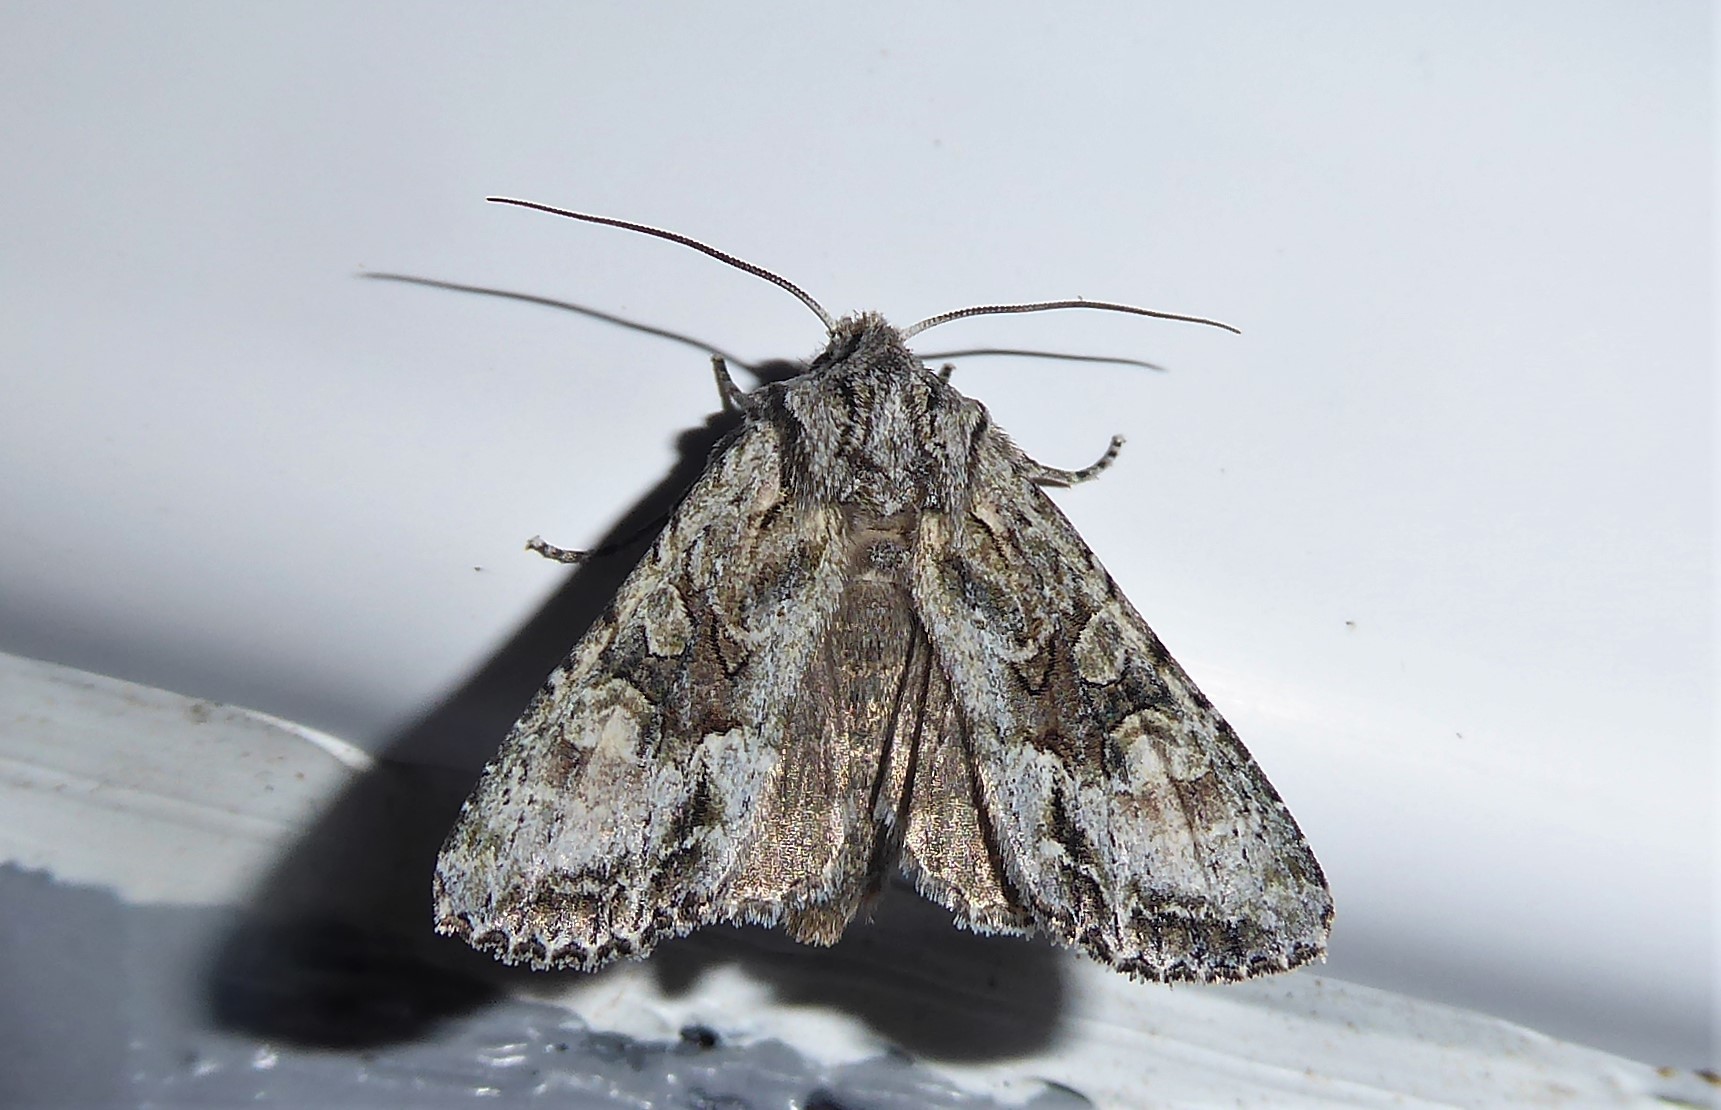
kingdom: Animalia
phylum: Arthropoda
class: Insecta
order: Lepidoptera
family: Noctuidae
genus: Ichneutica
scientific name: Ichneutica mutans
